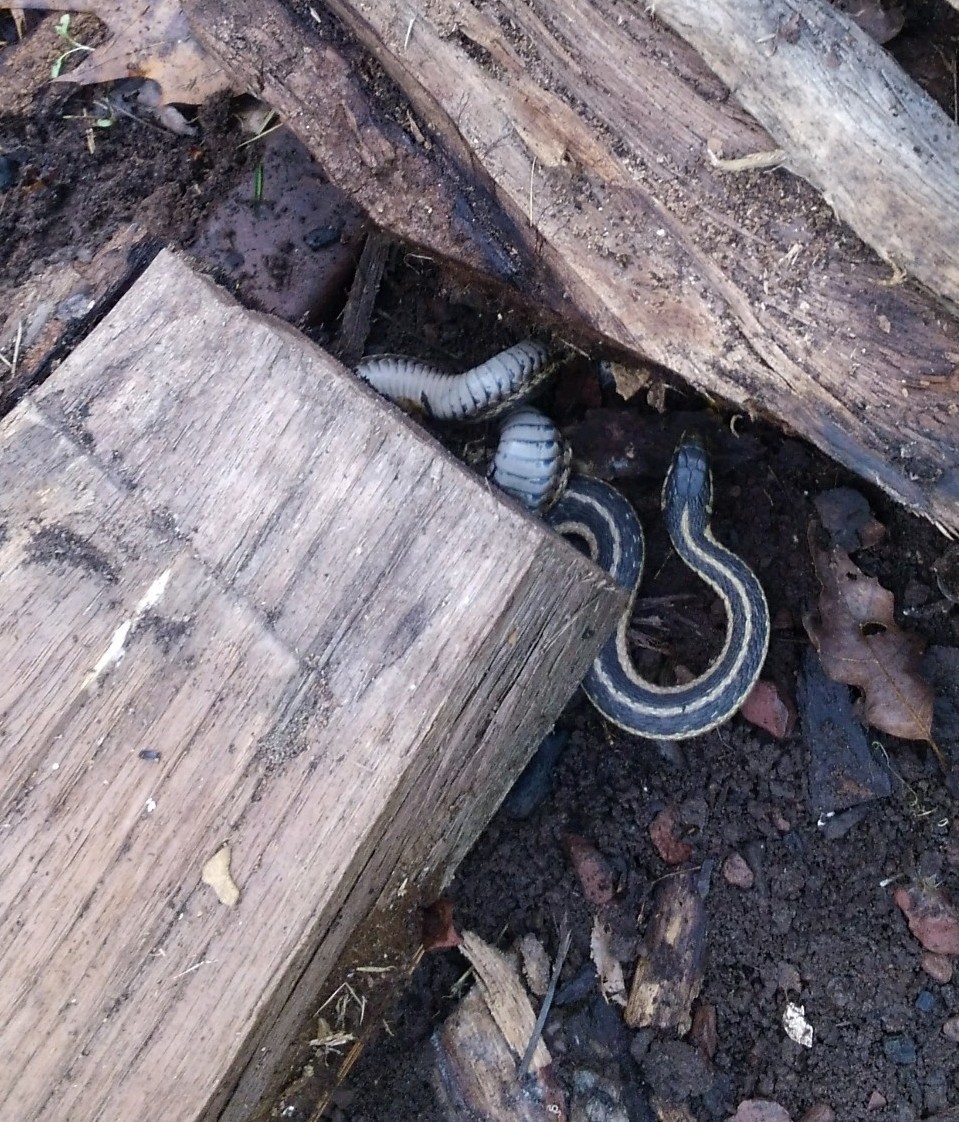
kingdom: Animalia
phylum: Chordata
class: Squamata
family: Colubridae
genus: Thamnophis
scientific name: Thamnophis sirtalis
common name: Common garter snake
